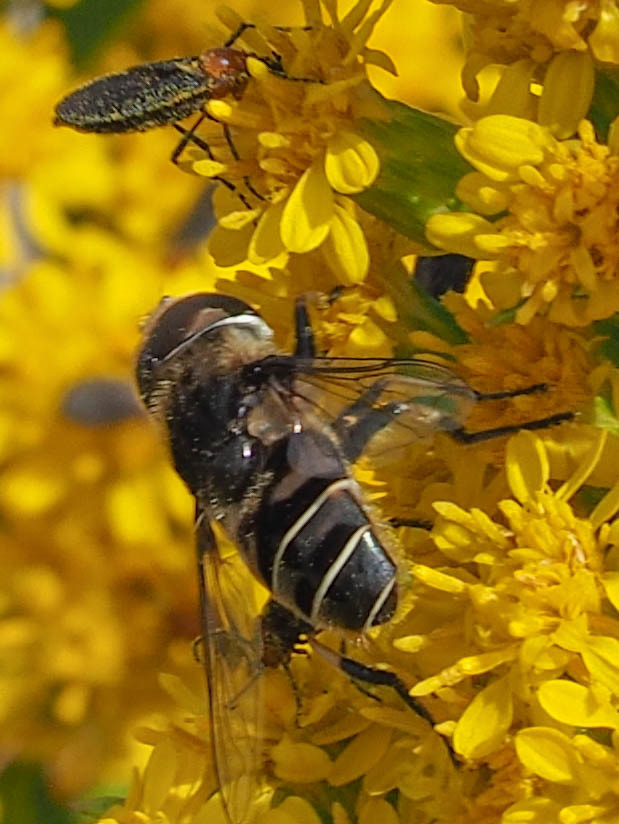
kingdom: Animalia
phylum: Arthropoda
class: Insecta
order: Diptera
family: Syrphidae
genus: Eristalis
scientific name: Eristalis dimidiata
